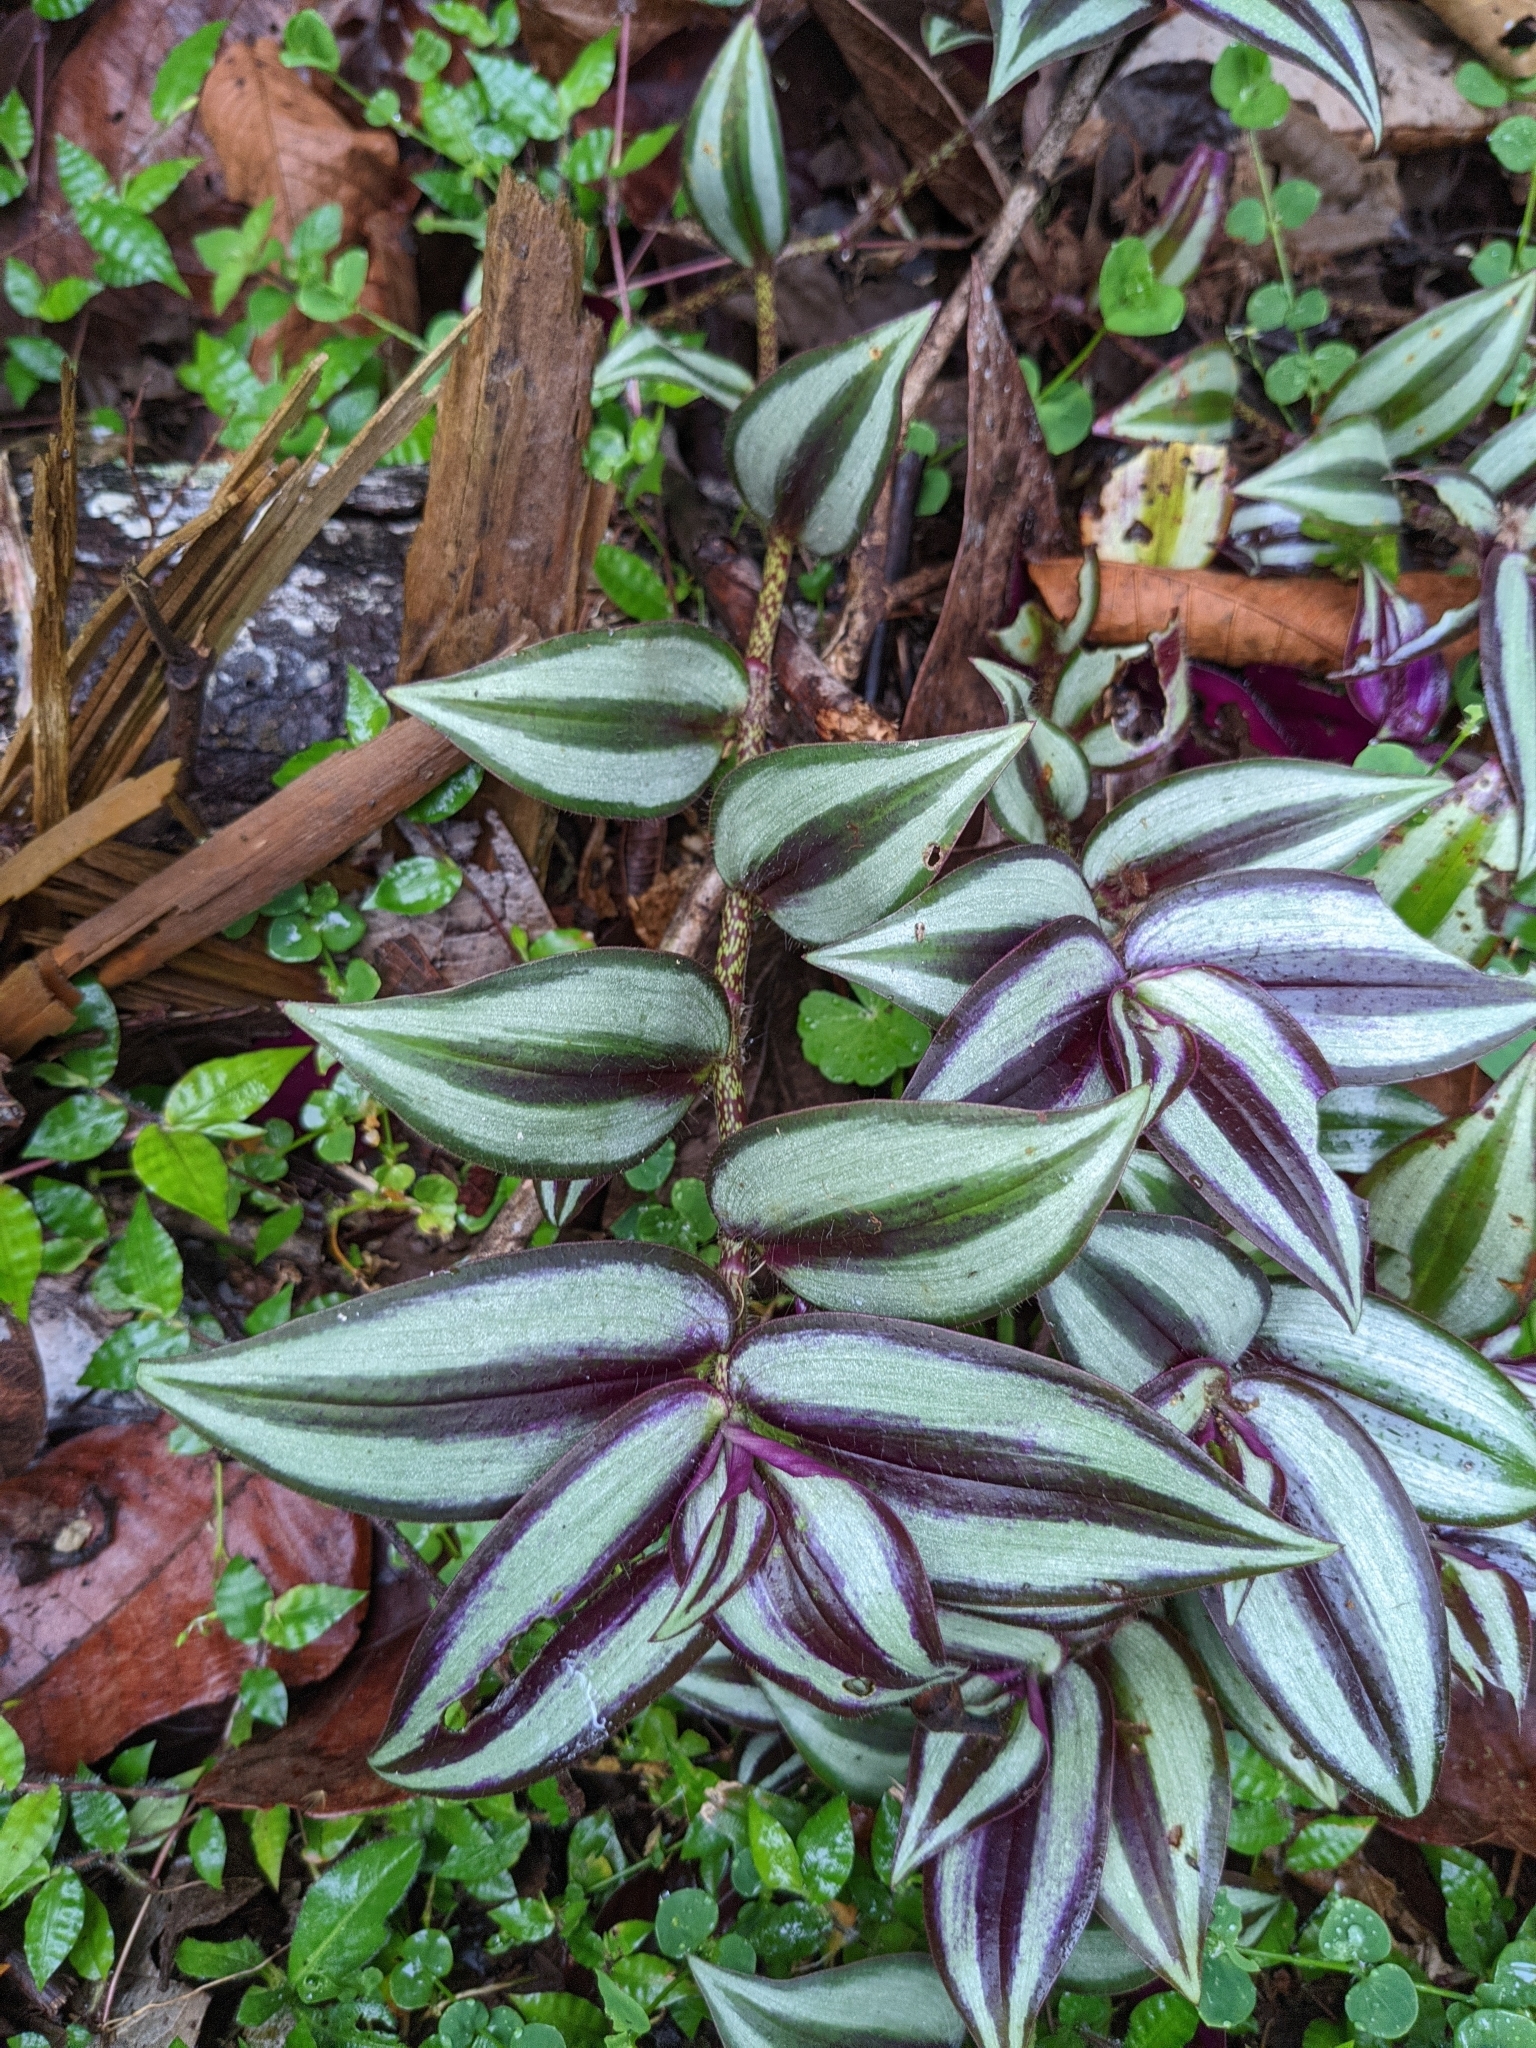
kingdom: Plantae
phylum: Tracheophyta
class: Liliopsida
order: Commelinales
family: Commelinaceae
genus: Tradescantia
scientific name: Tradescantia zebrina
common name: Inchplant
